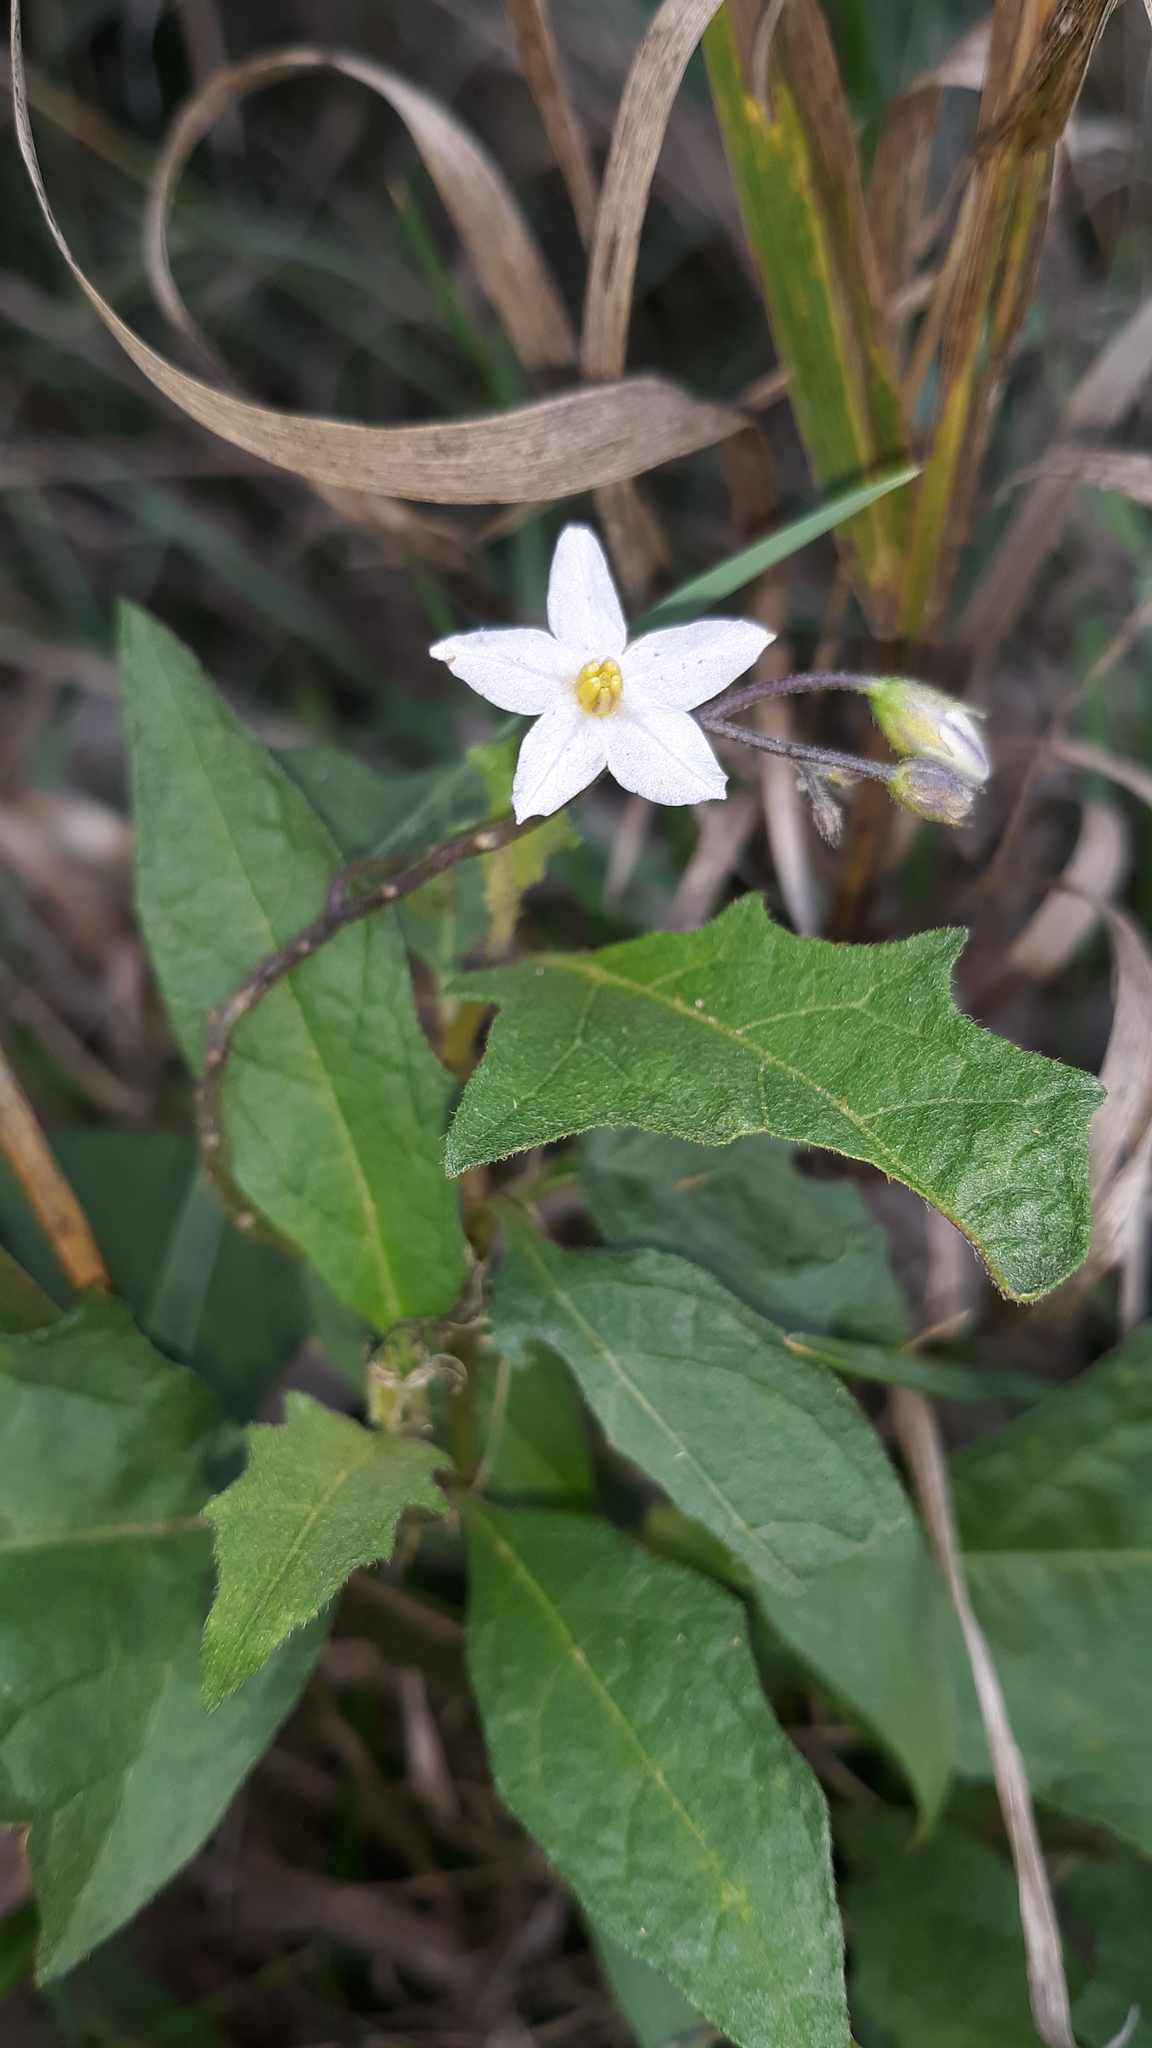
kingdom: Plantae
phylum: Tracheophyta
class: Magnoliopsida
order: Solanales
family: Solanaceae
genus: Solanum
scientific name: Solanum carolinense
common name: Horse-nettle
